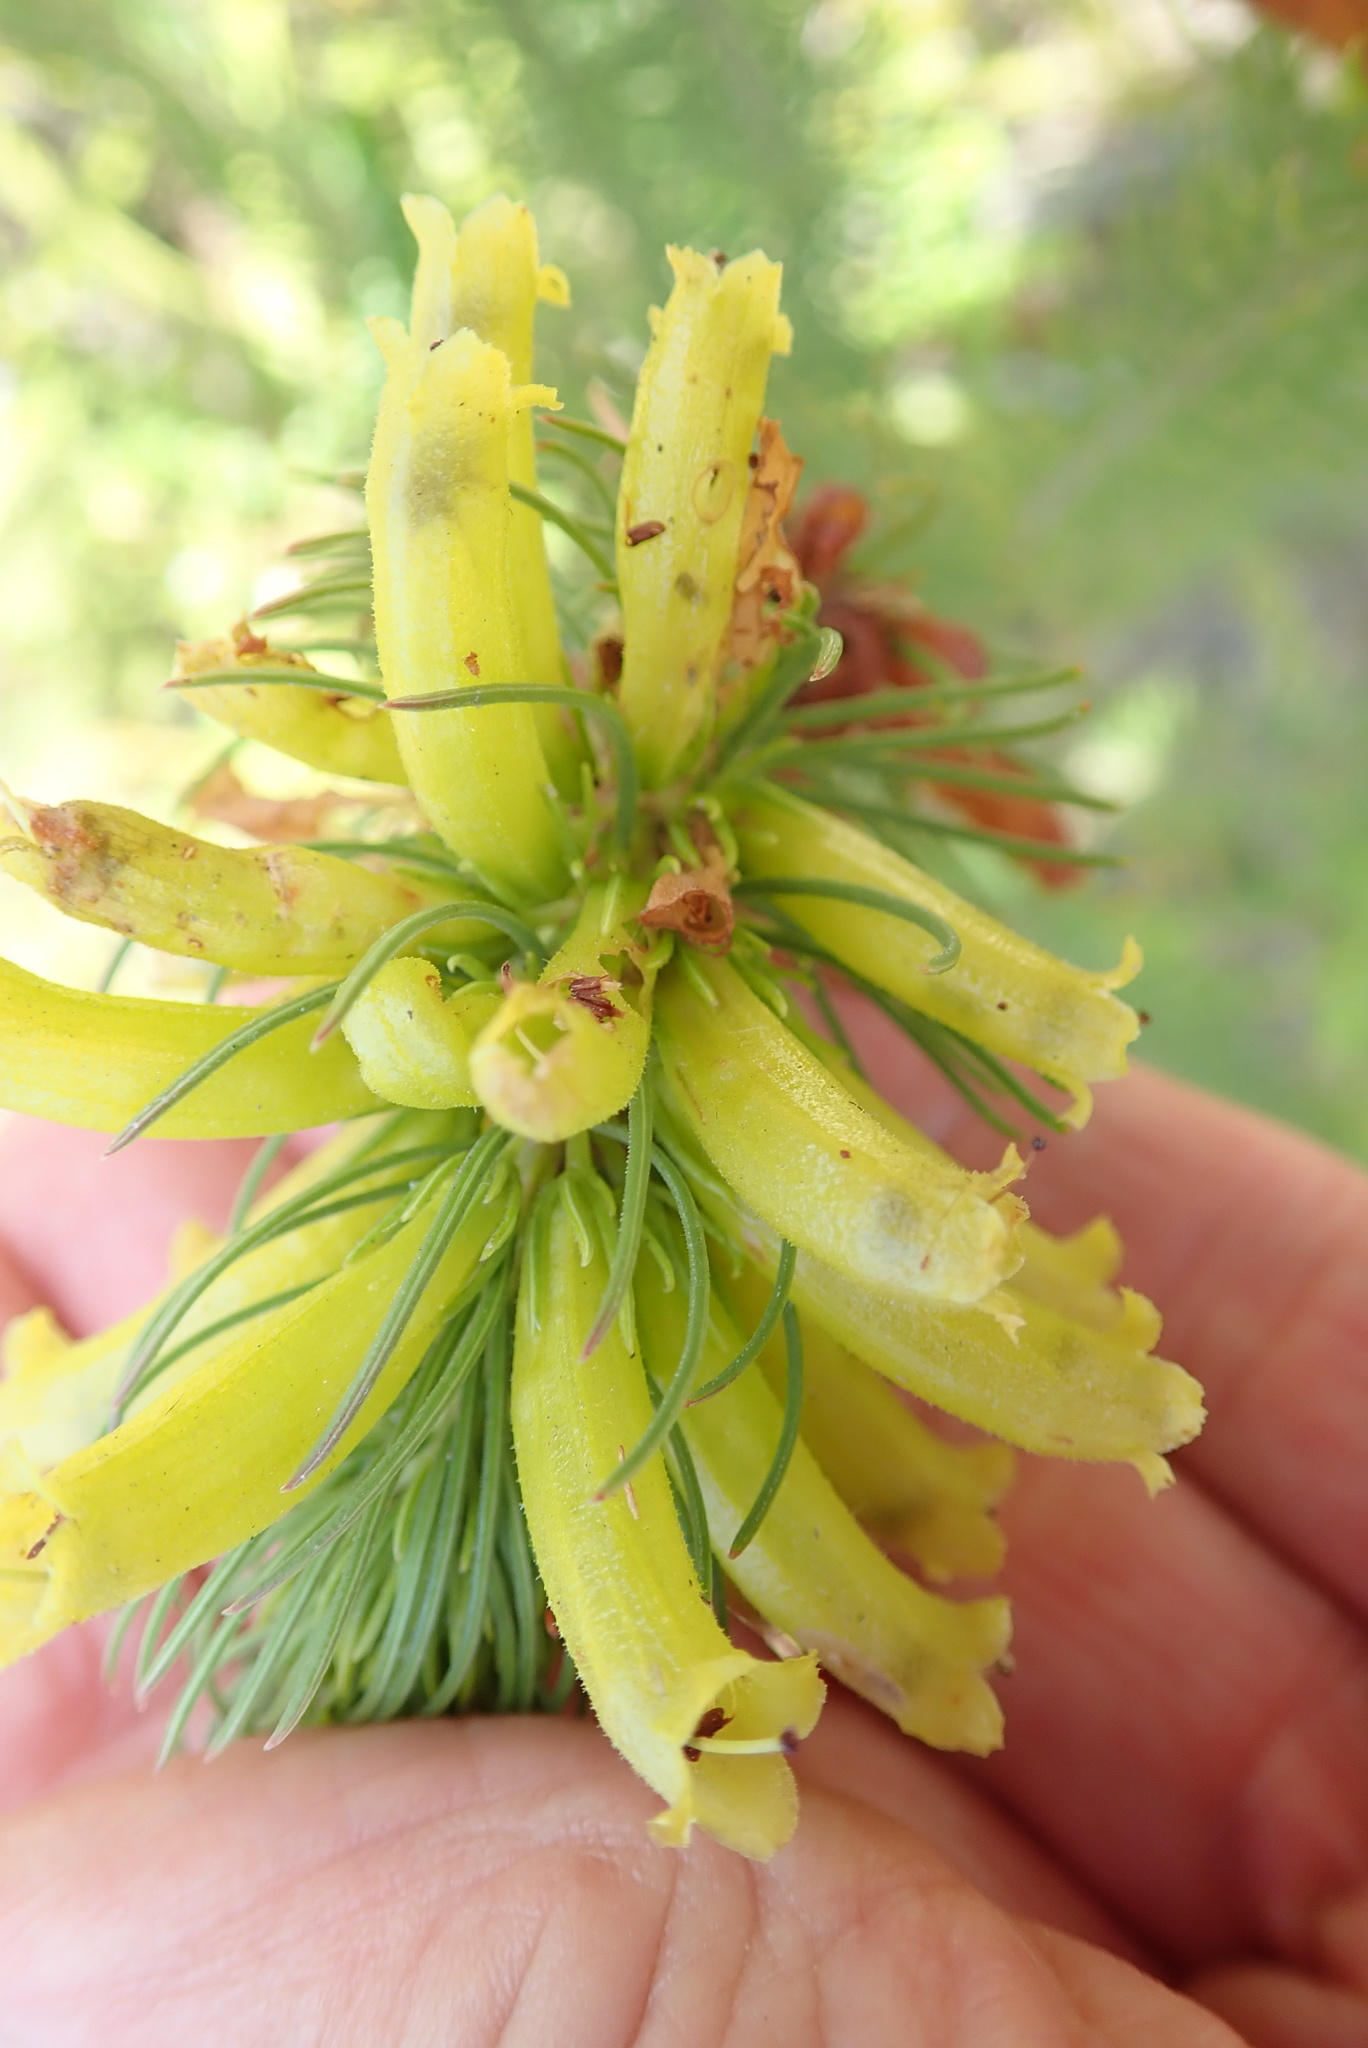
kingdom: Plantae
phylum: Tracheophyta
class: Magnoliopsida
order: Ericales
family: Ericaceae
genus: Erica
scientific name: Erica viscaria
